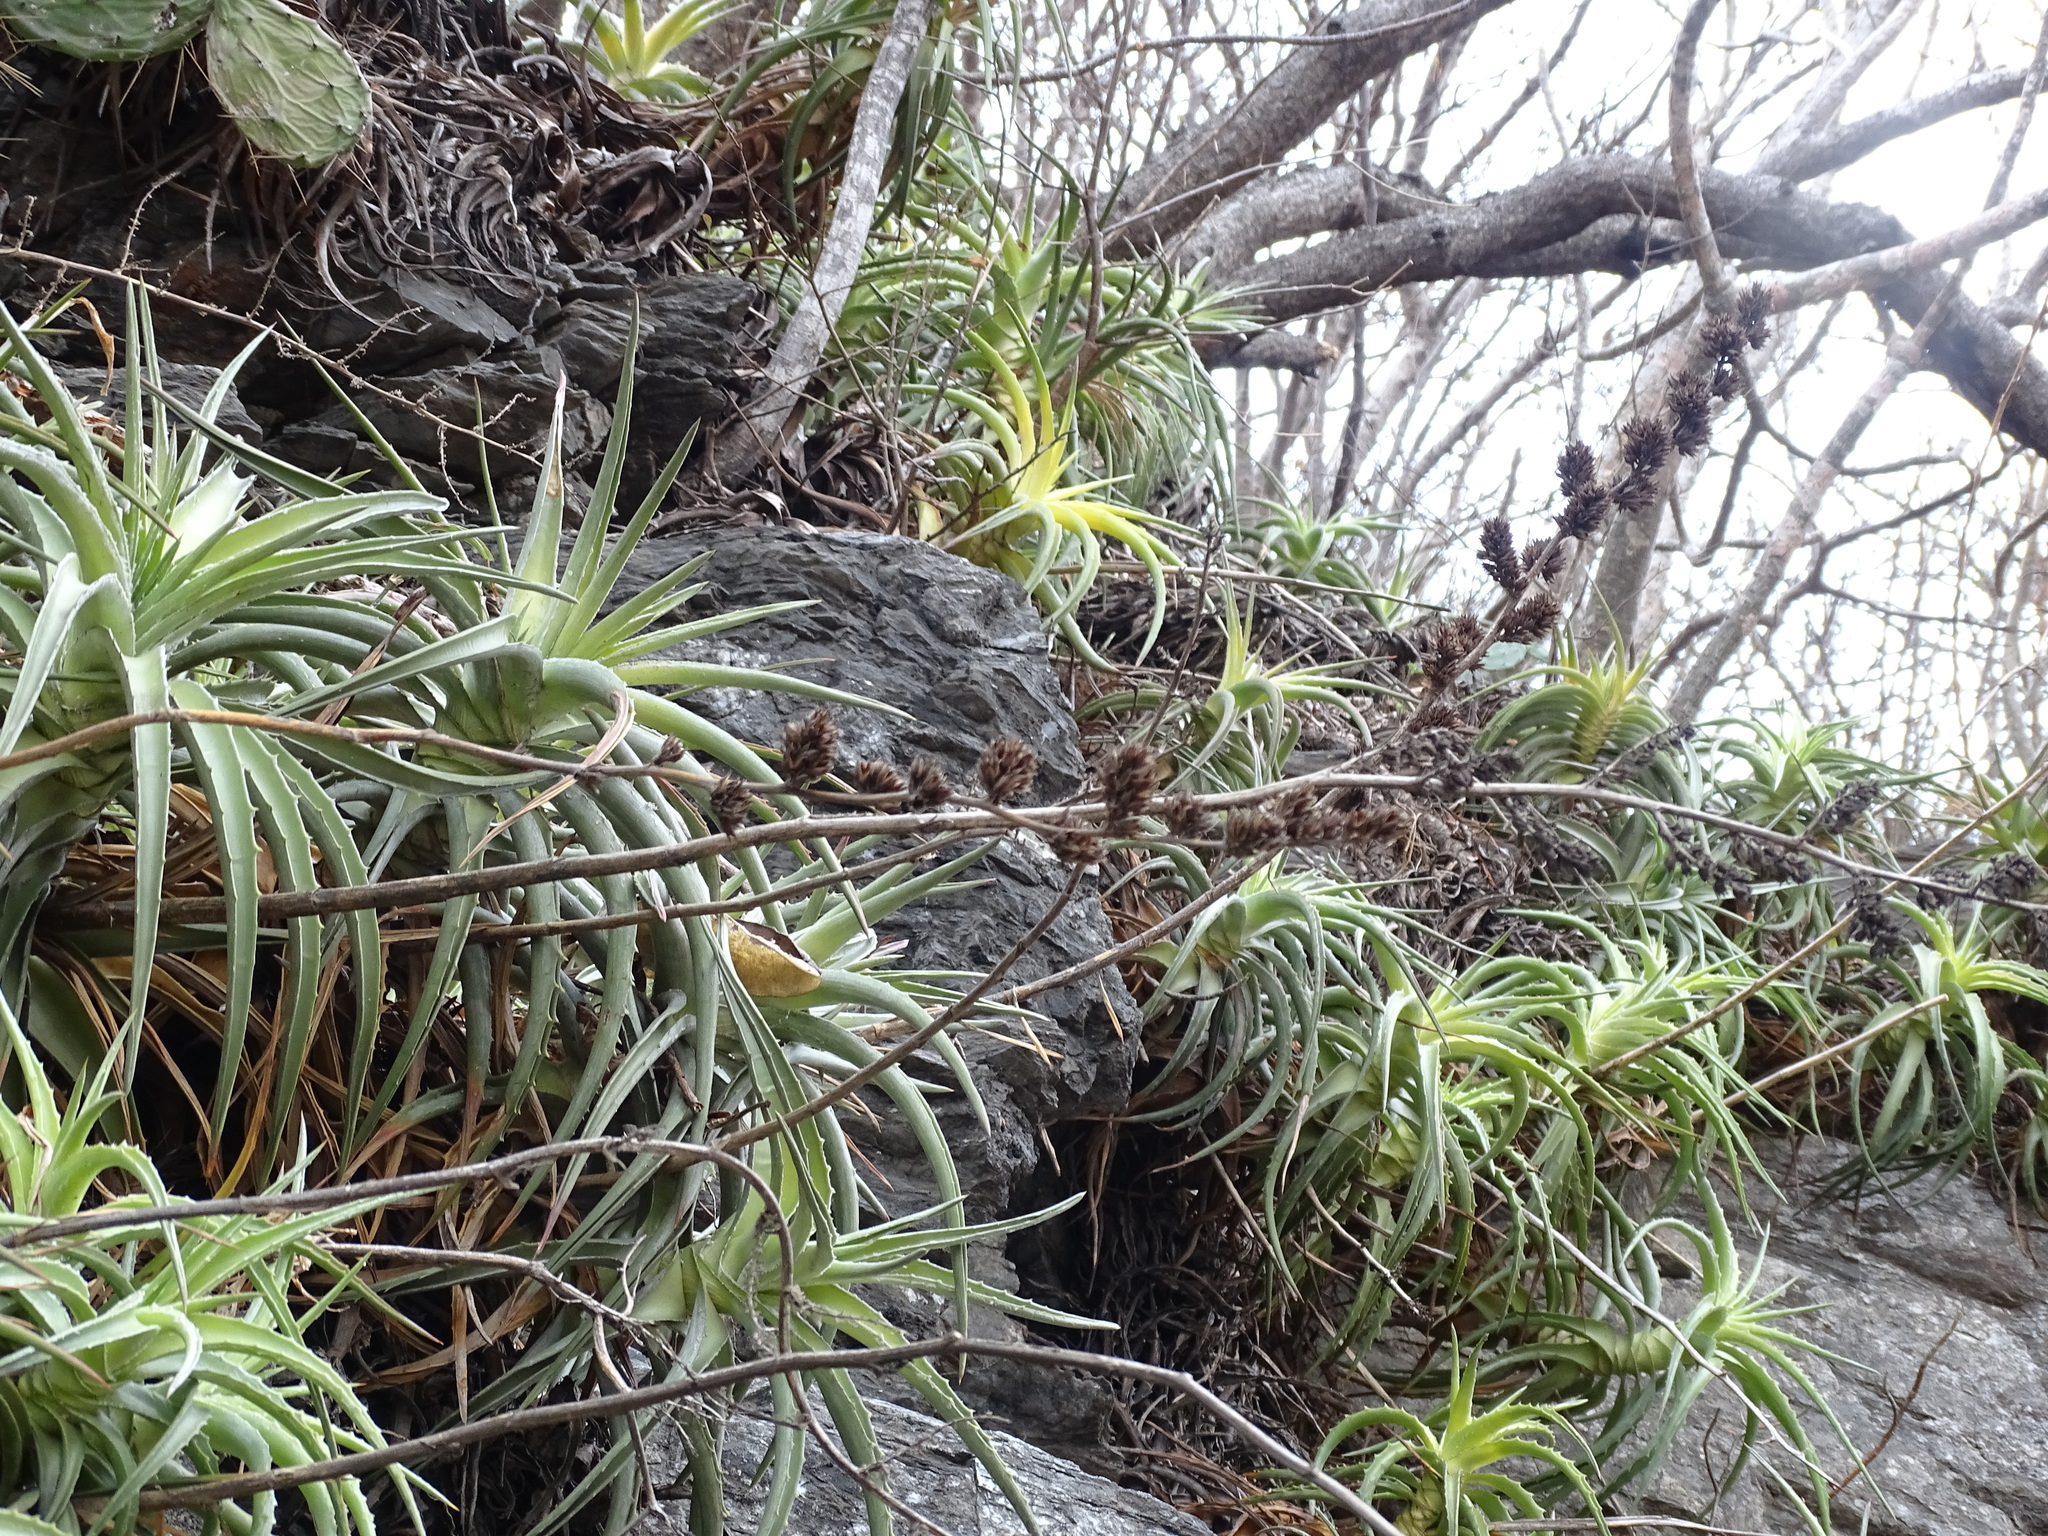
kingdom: Plantae
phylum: Tracheophyta
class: Liliopsida
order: Poales
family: Bromeliaceae
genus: Hechtia
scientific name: Hechtia isthmusiana
